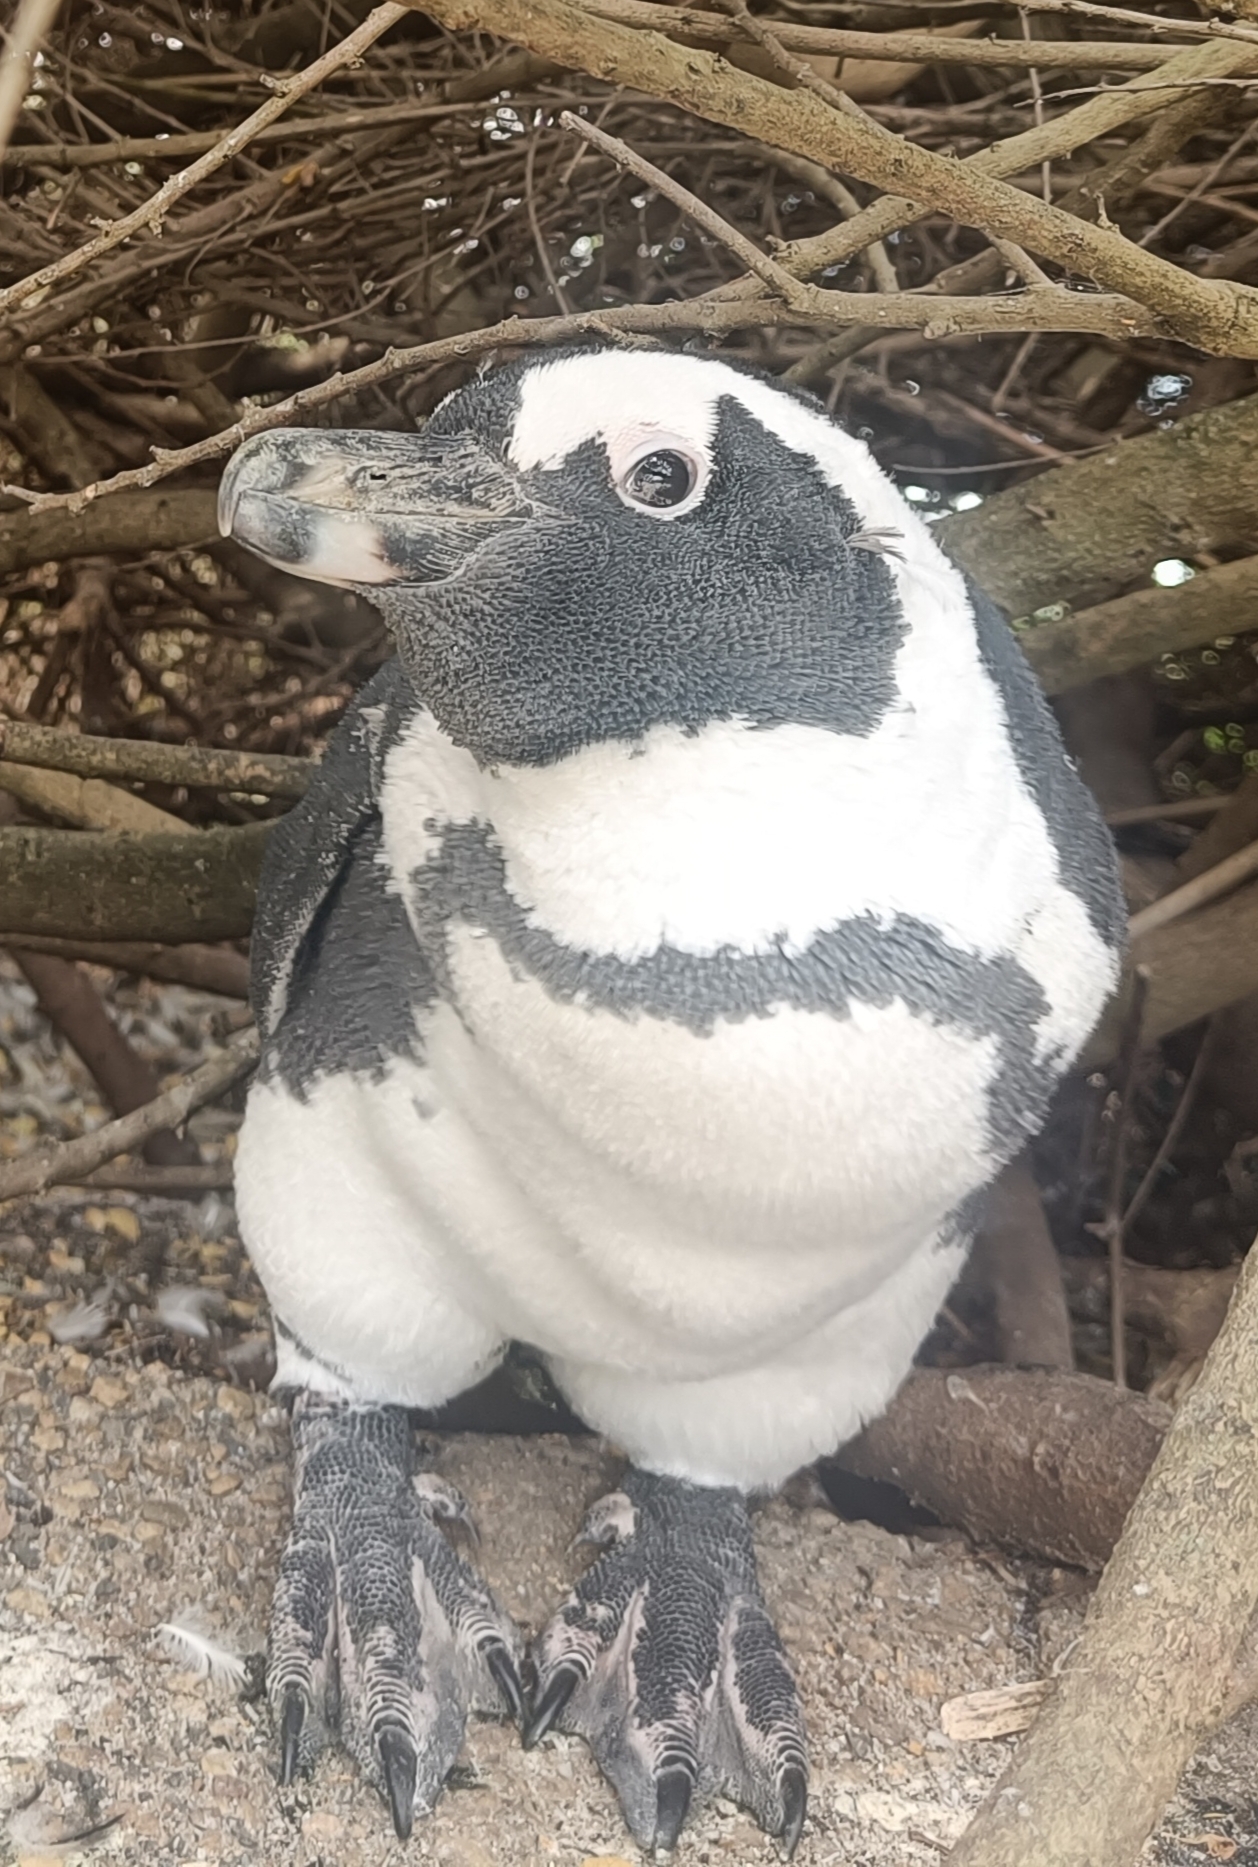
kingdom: Animalia
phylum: Chordata
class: Aves
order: Sphenisciformes
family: Spheniscidae
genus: Spheniscus
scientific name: Spheniscus demersus
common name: African penguin
